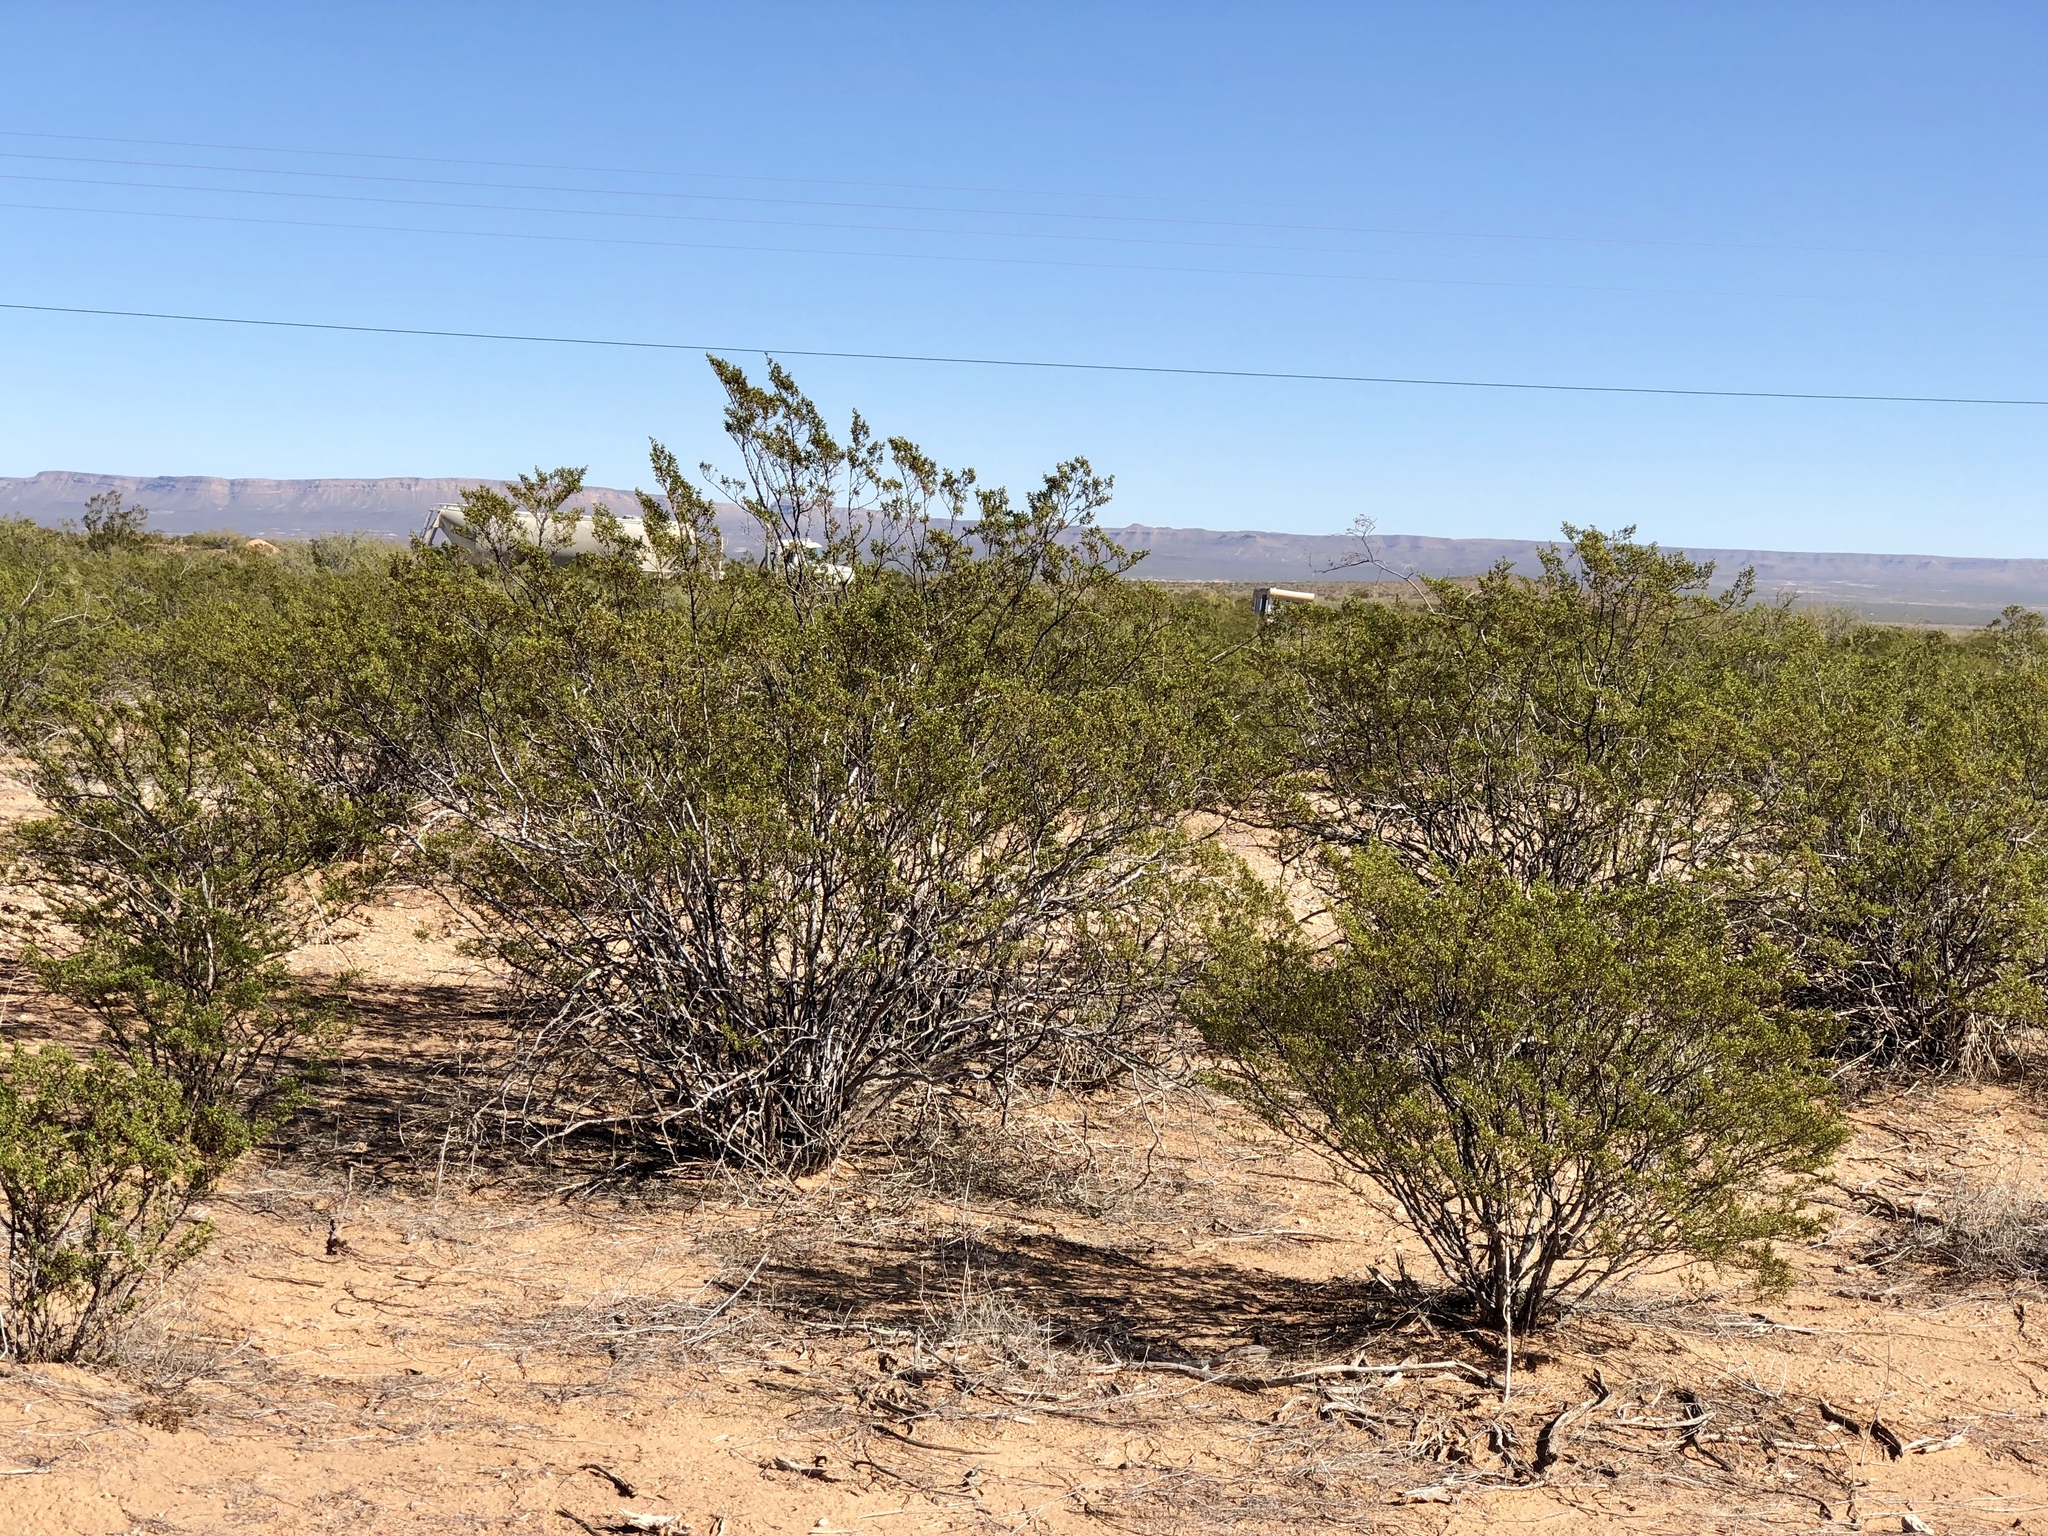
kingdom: Plantae
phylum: Tracheophyta
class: Magnoliopsida
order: Zygophyllales
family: Zygophyllaceae
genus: Larrea
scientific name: Larrea tridentata
